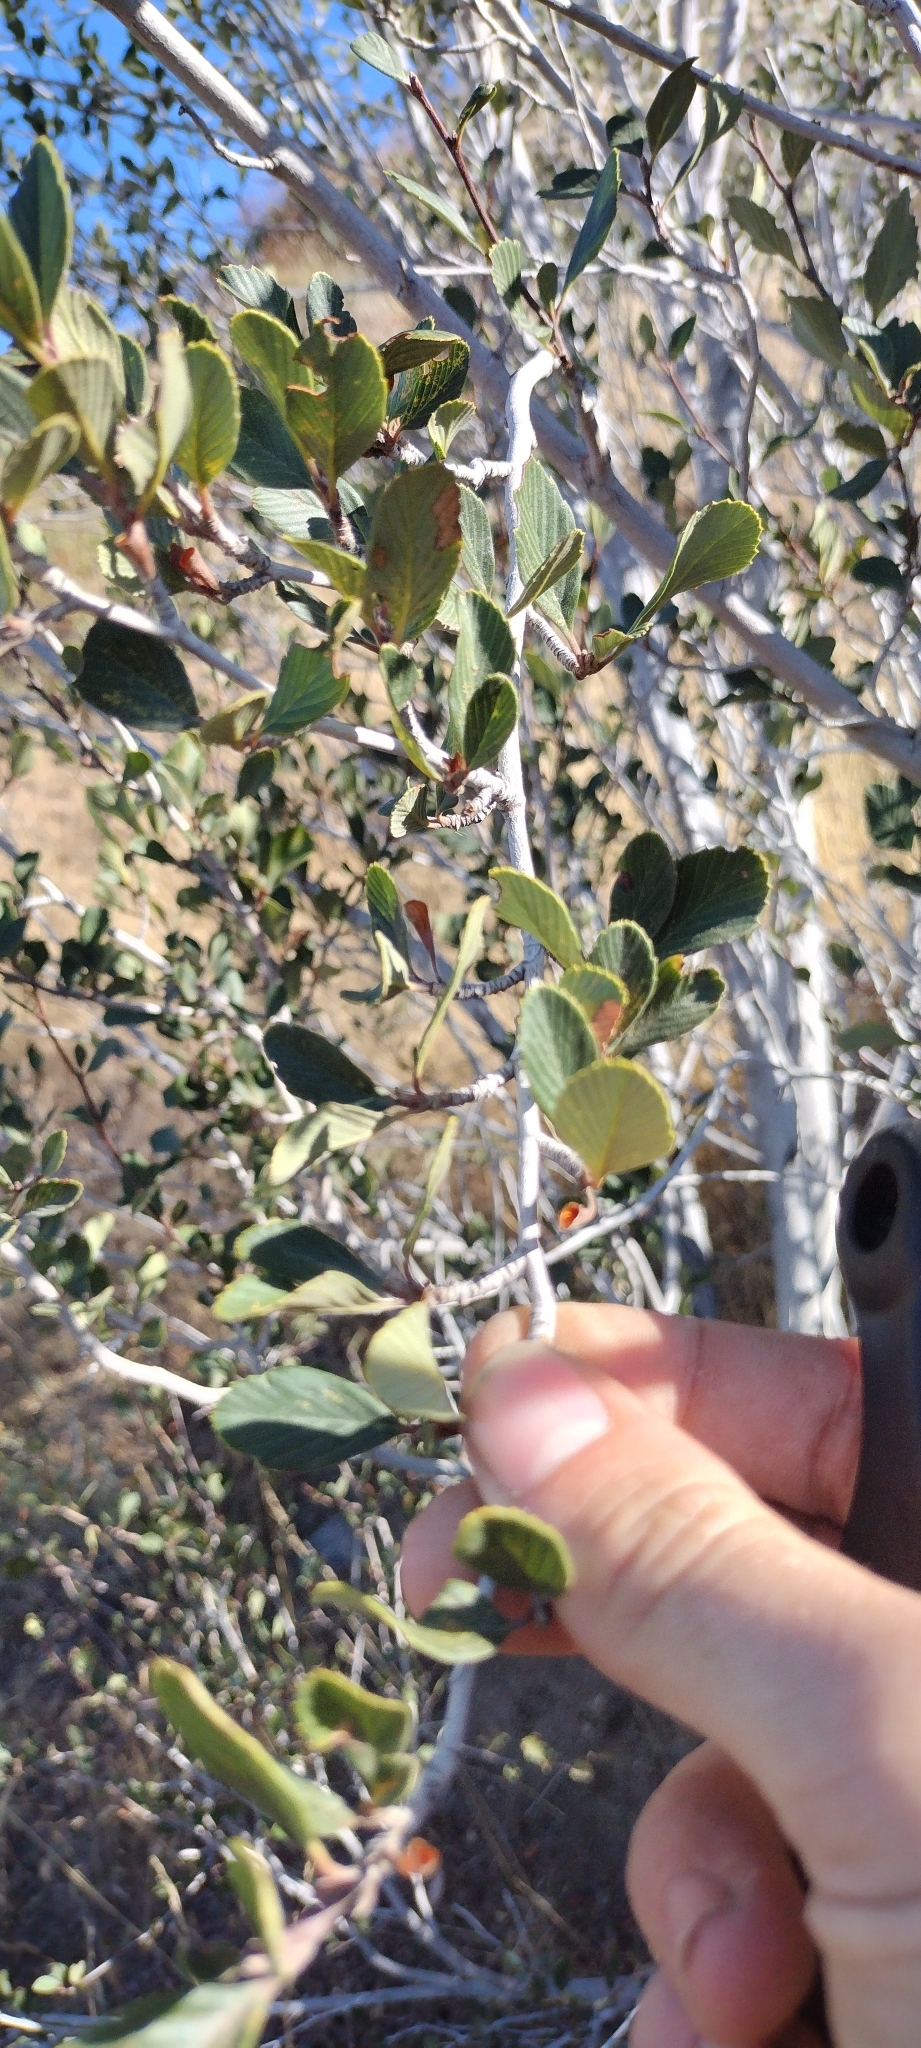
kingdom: Plantae
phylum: Tracheophyta
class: Magnoliopsida
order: Rosales
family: Rosaceae
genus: Cercocarpus
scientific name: Cercocarpus betuloides
